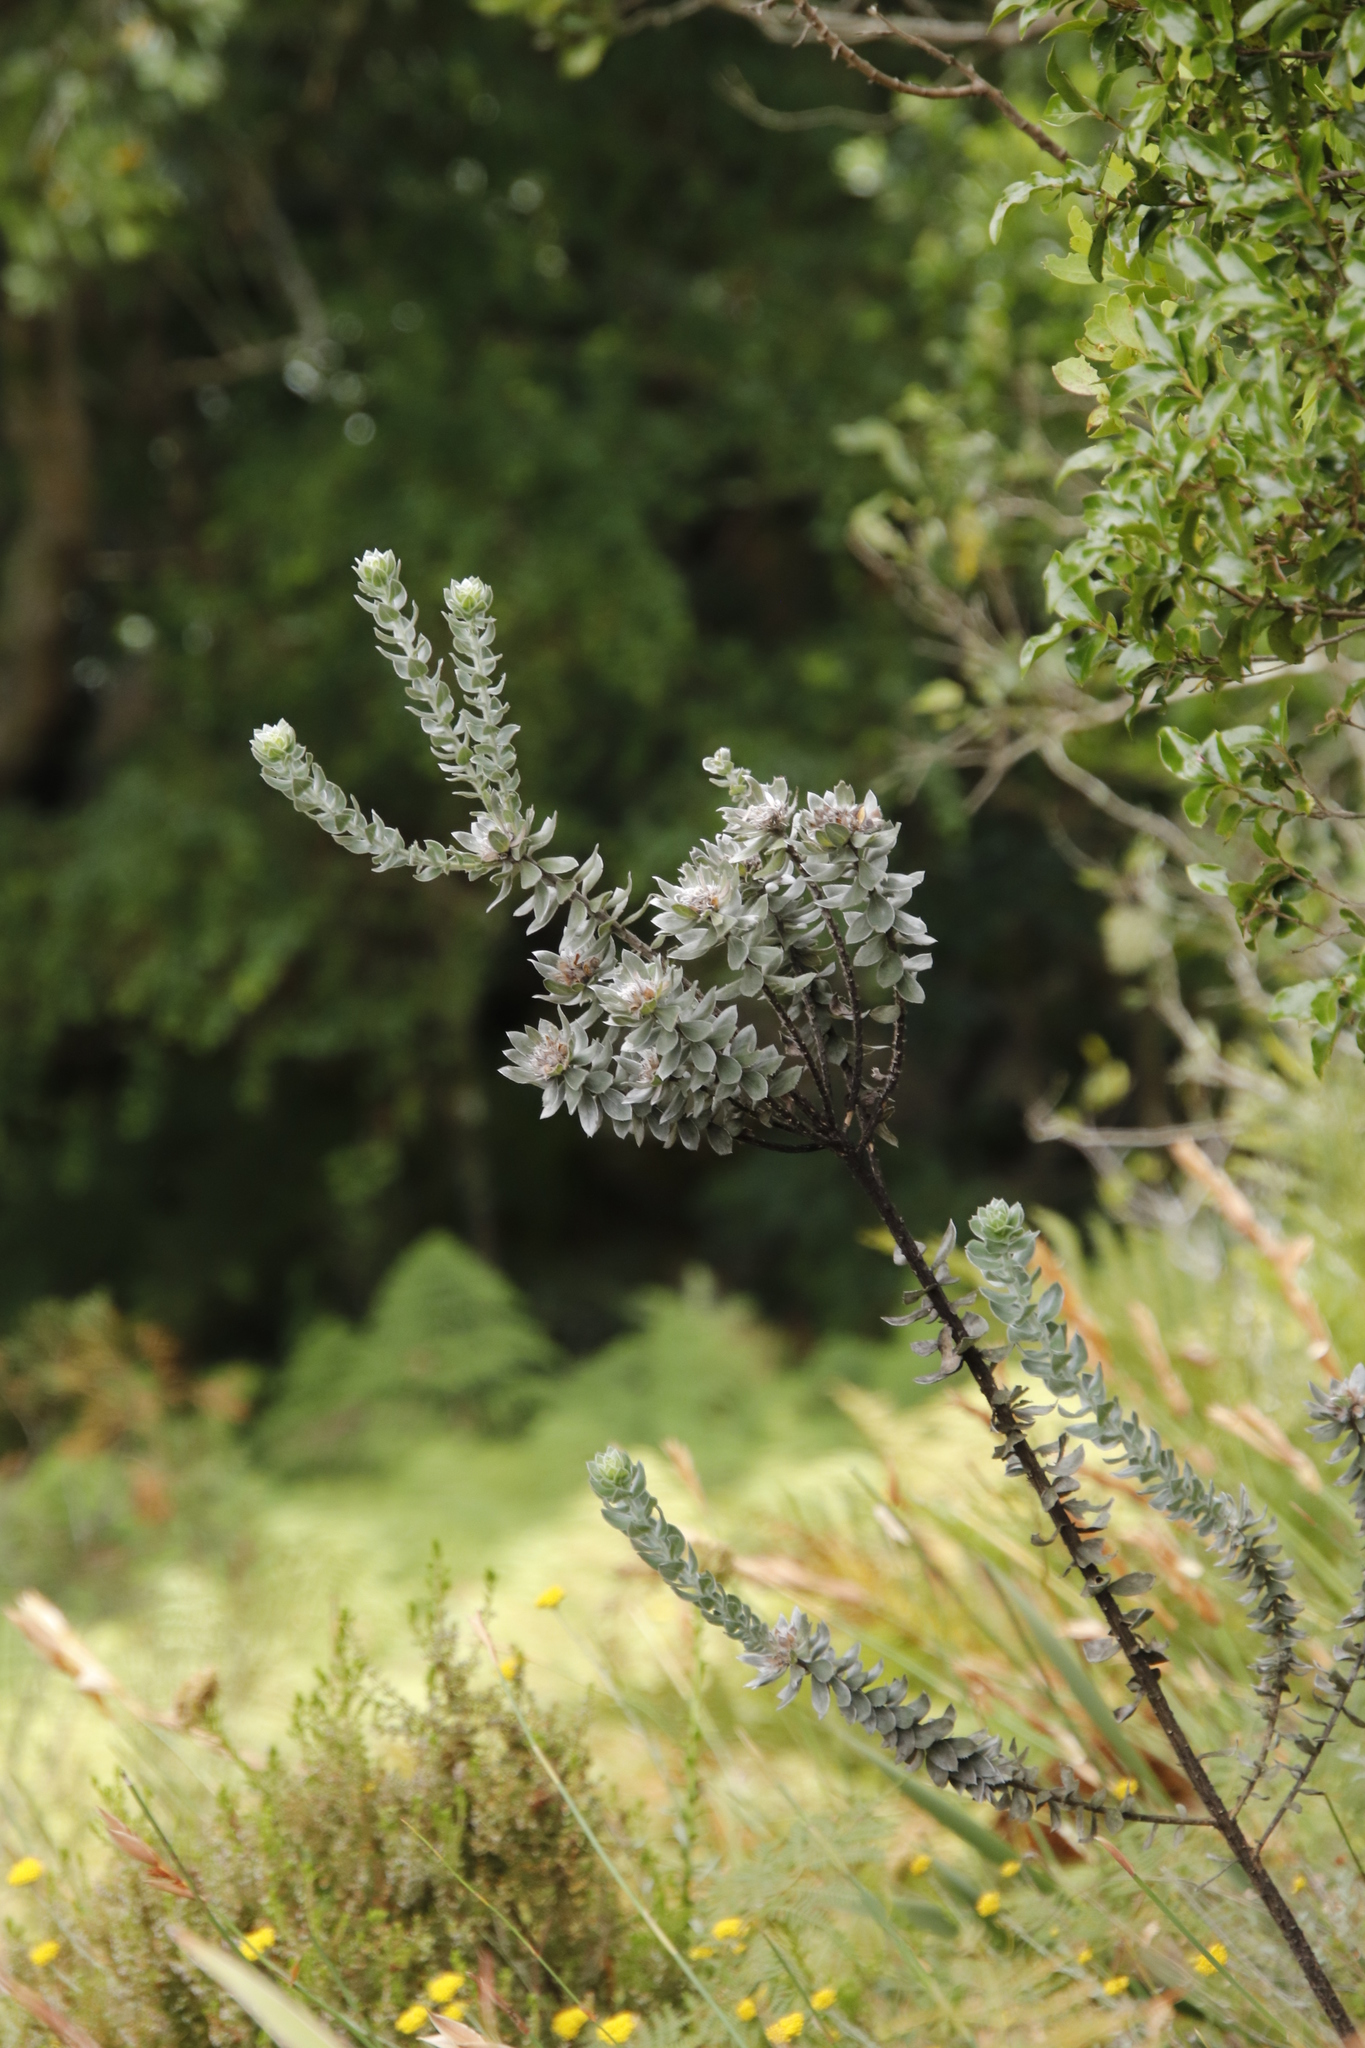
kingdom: Plantae
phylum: Tracheophyta
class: Magnoliopsida
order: Fabales
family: Fabaceae
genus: Xiphotheca
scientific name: Xiphotheca fruticosa
